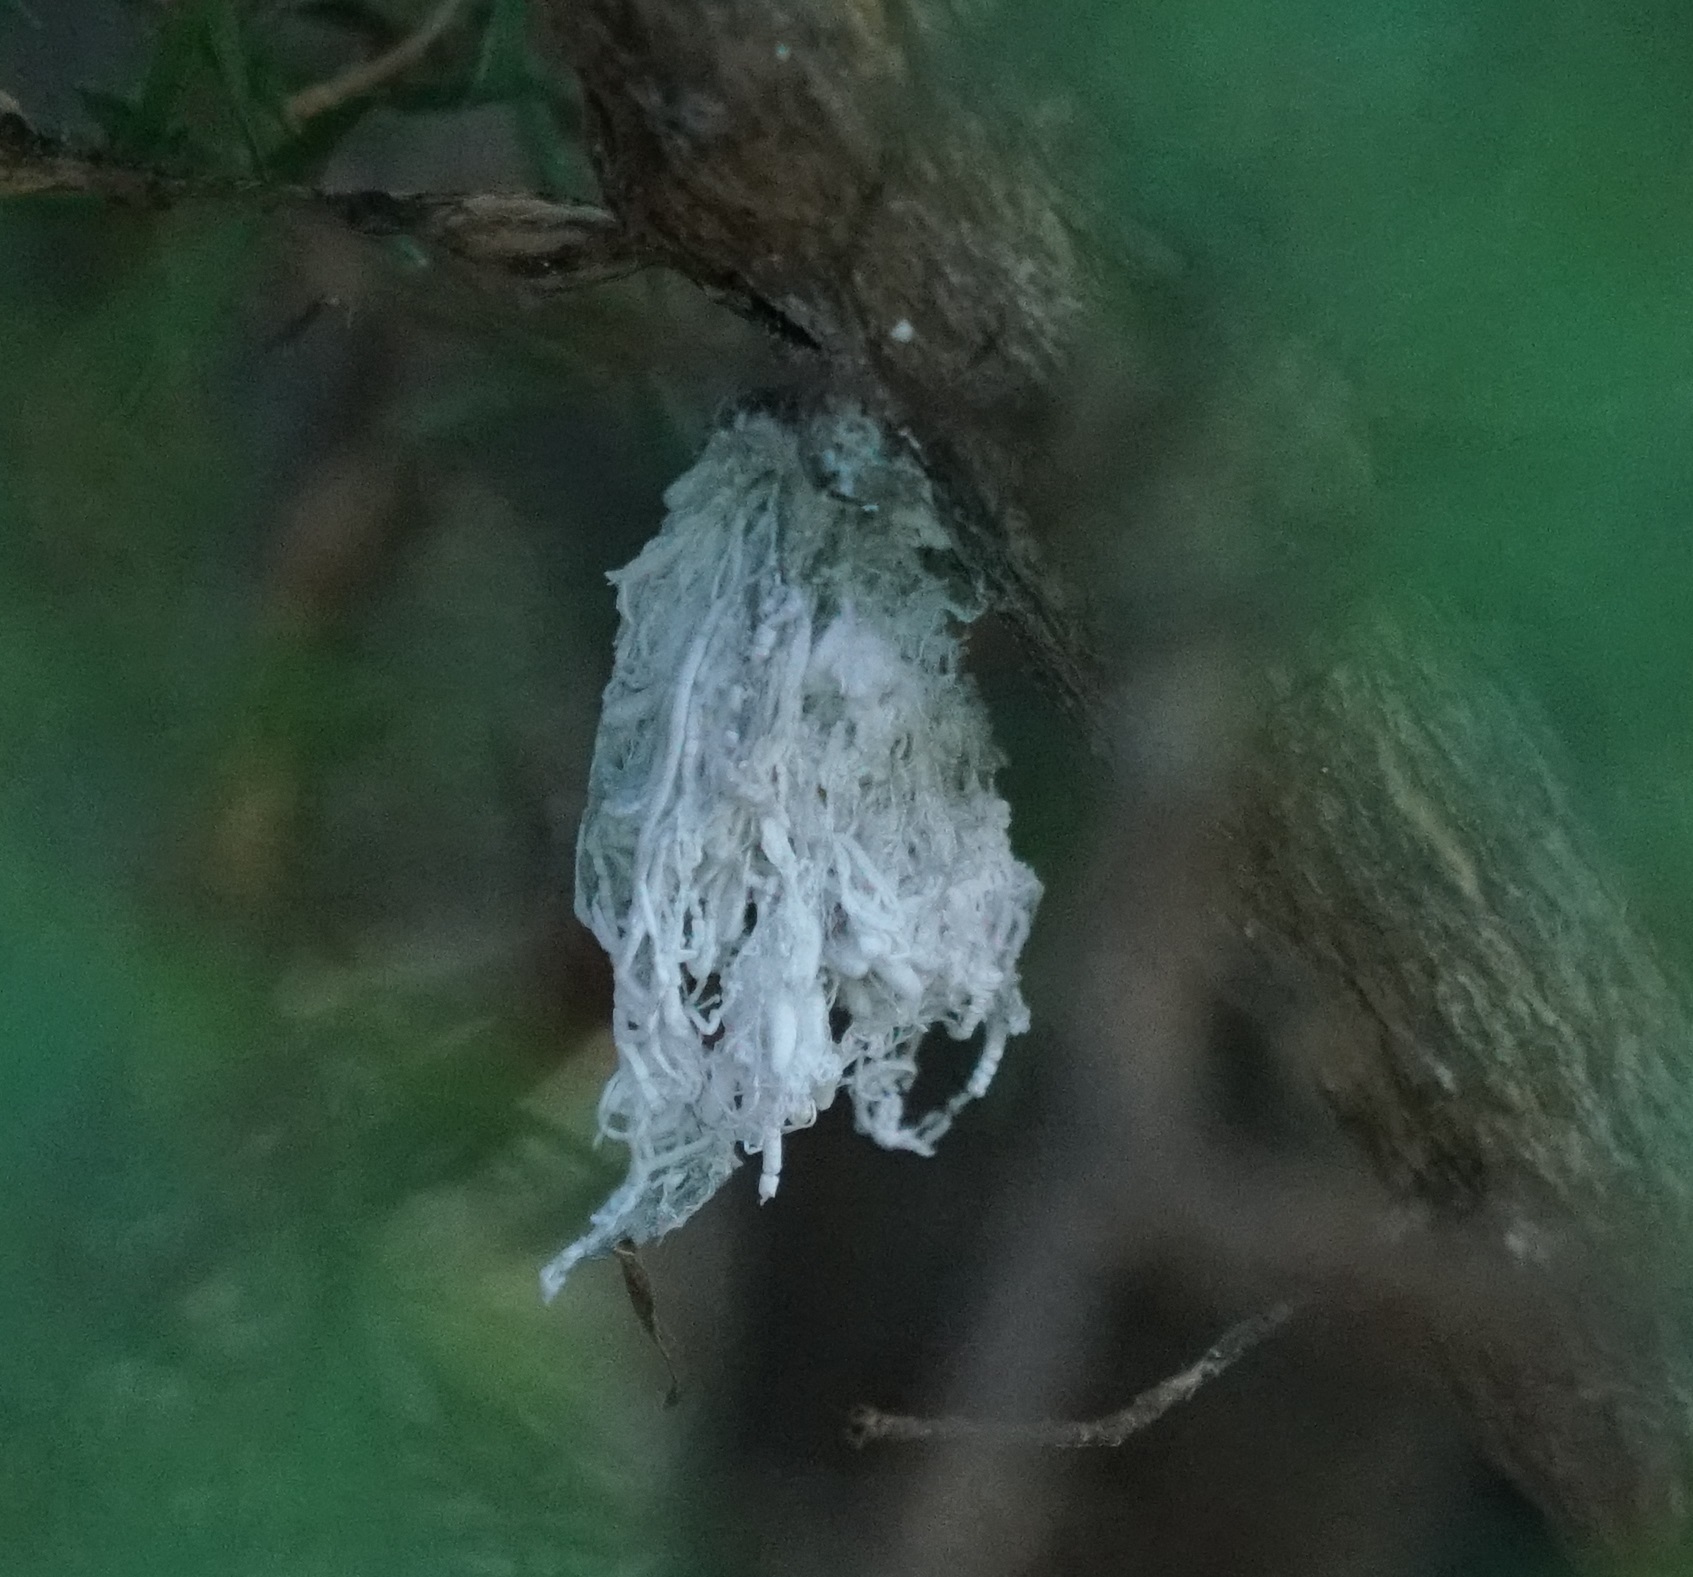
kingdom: Animalia
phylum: Arthropoda
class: Insecta
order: Hemiptera
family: Asterolecaniidae
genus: Callococcus
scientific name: Callococcus
